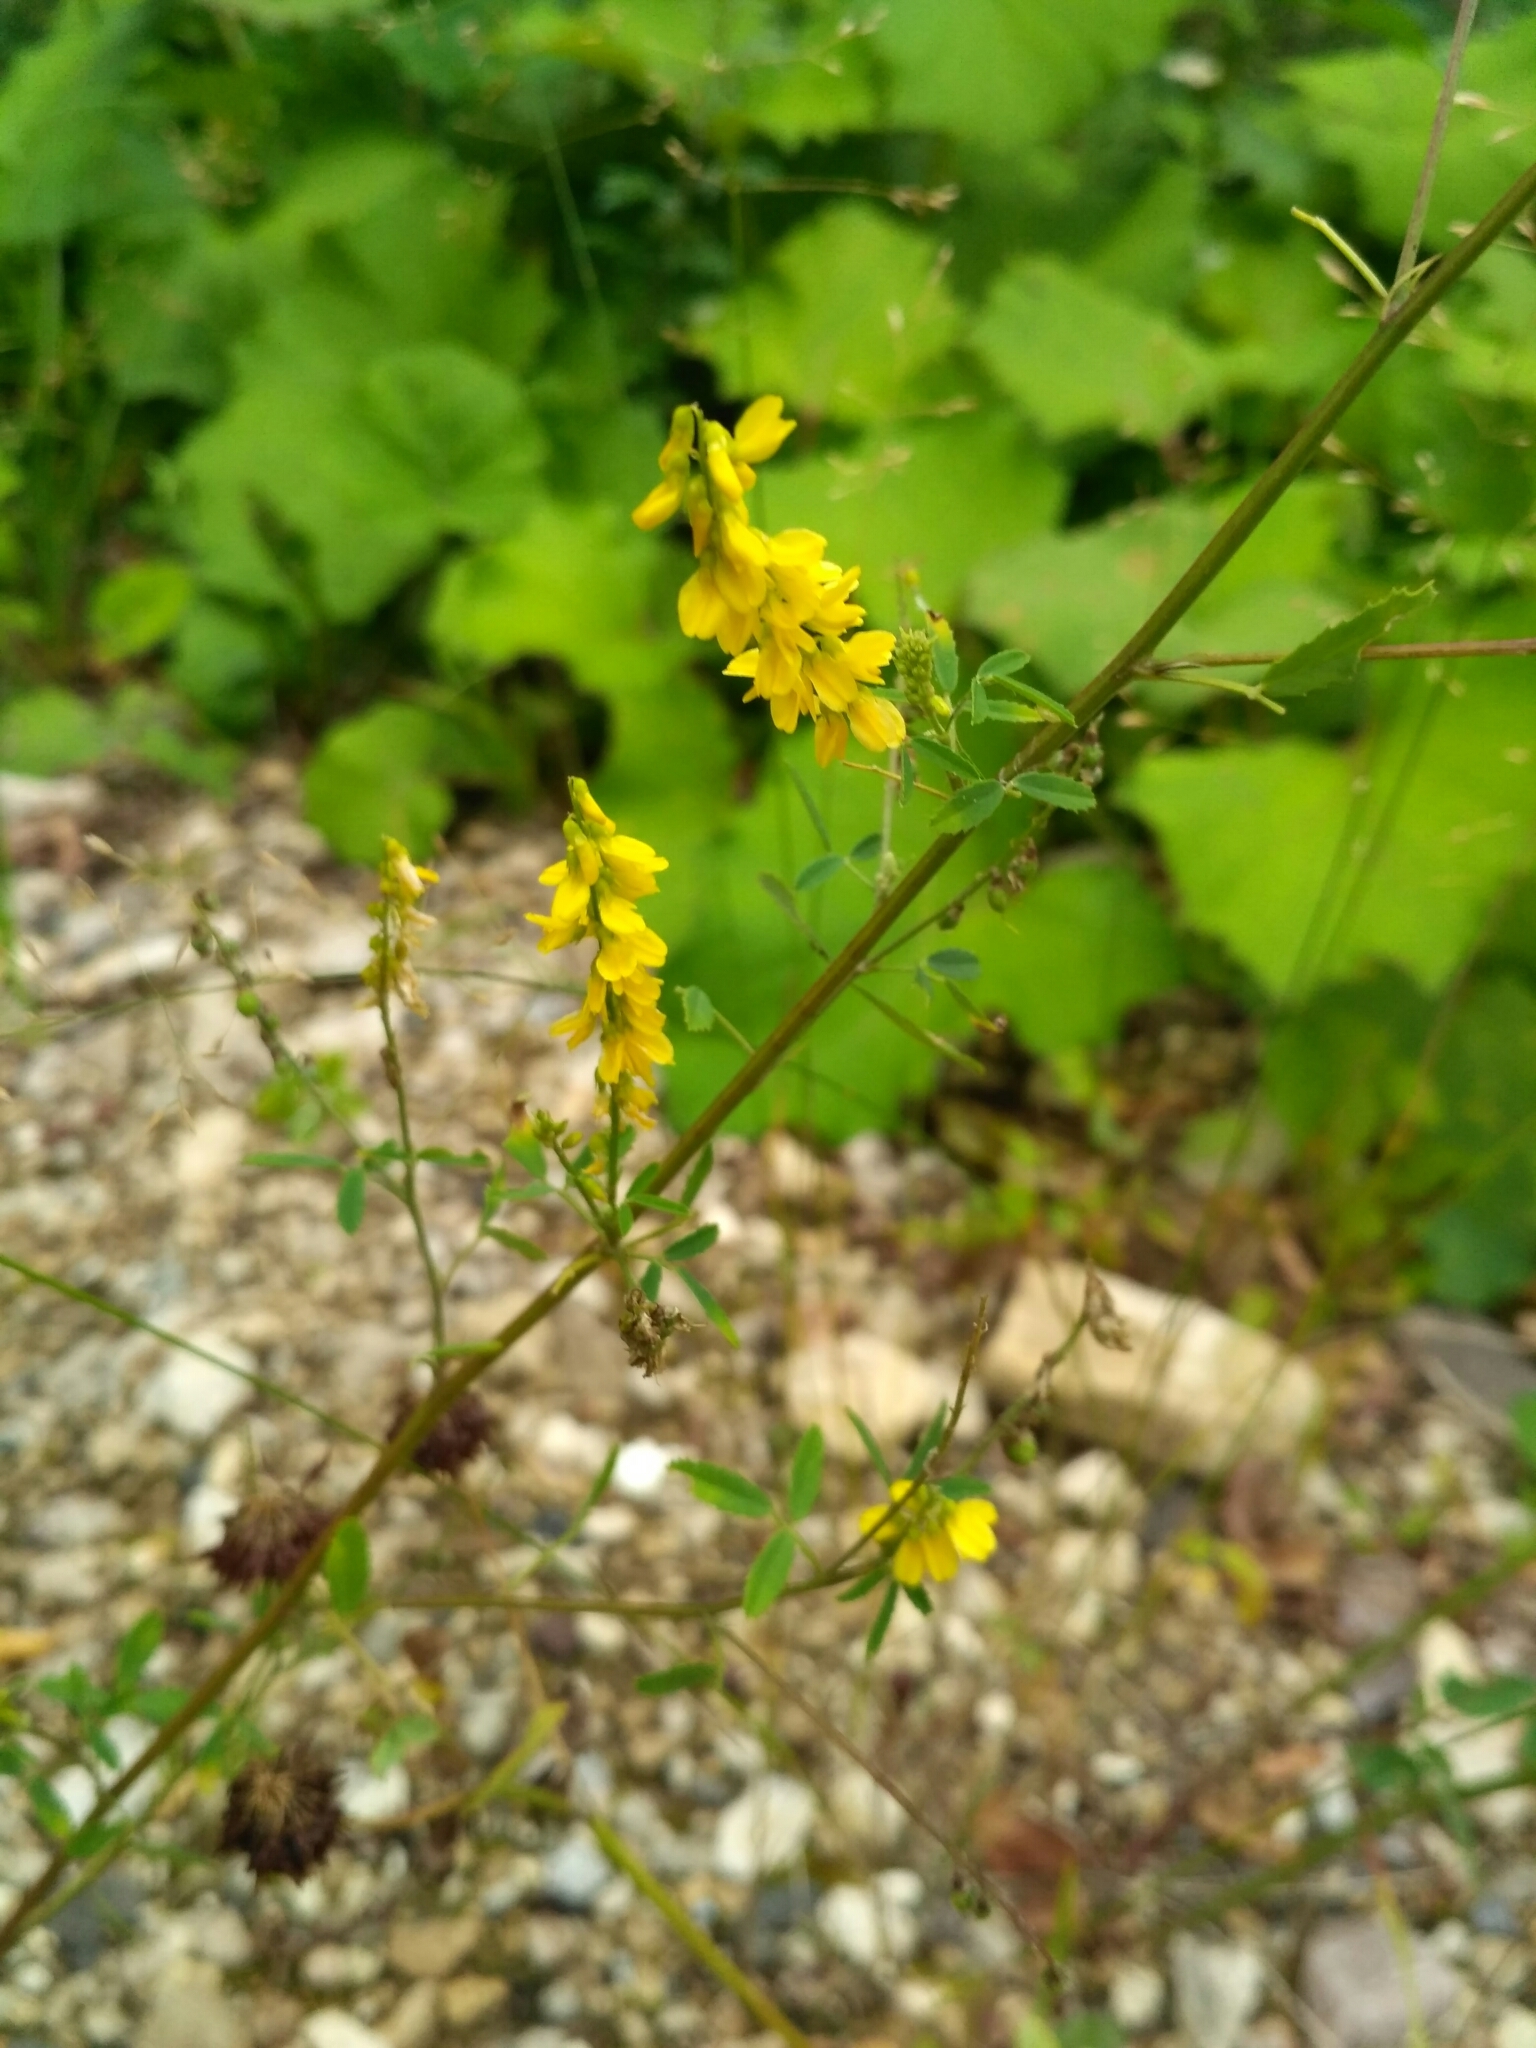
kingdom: Plantae
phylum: Tracheophyta
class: Magnoliopsida
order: Fabales
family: Fabaceae
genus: Melilotus
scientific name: Melilotus officinalis
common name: Sweetclover
